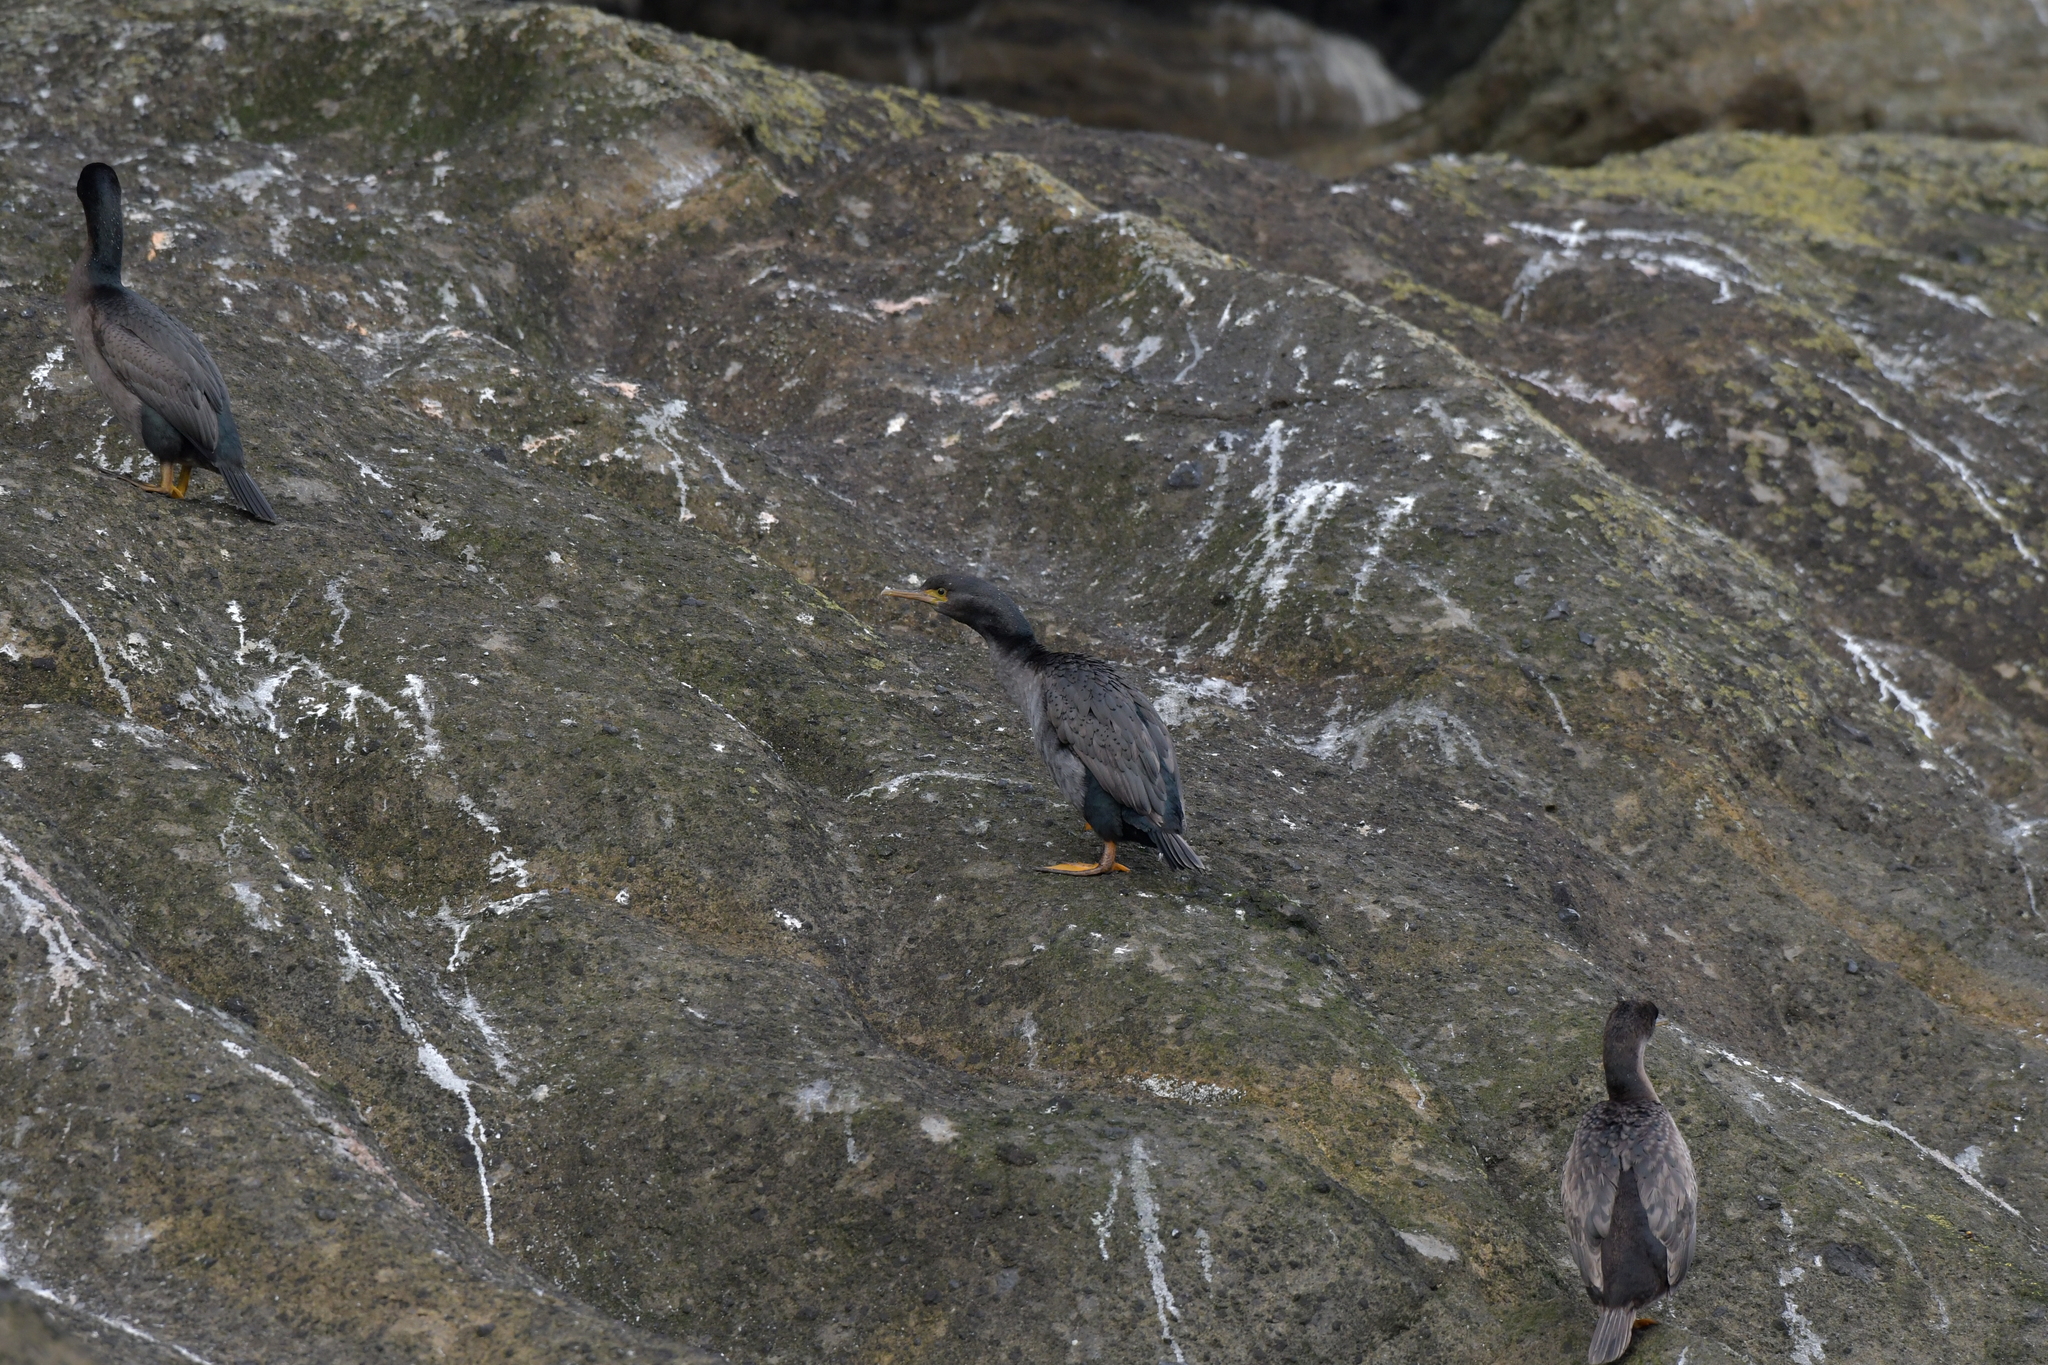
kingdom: Animalia
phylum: Chordata
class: Aves
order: Suliformes
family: Phalacrocoracidae
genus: Phalacrocorax
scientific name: Phalacrocorax featherstoni
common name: Pitt shag
